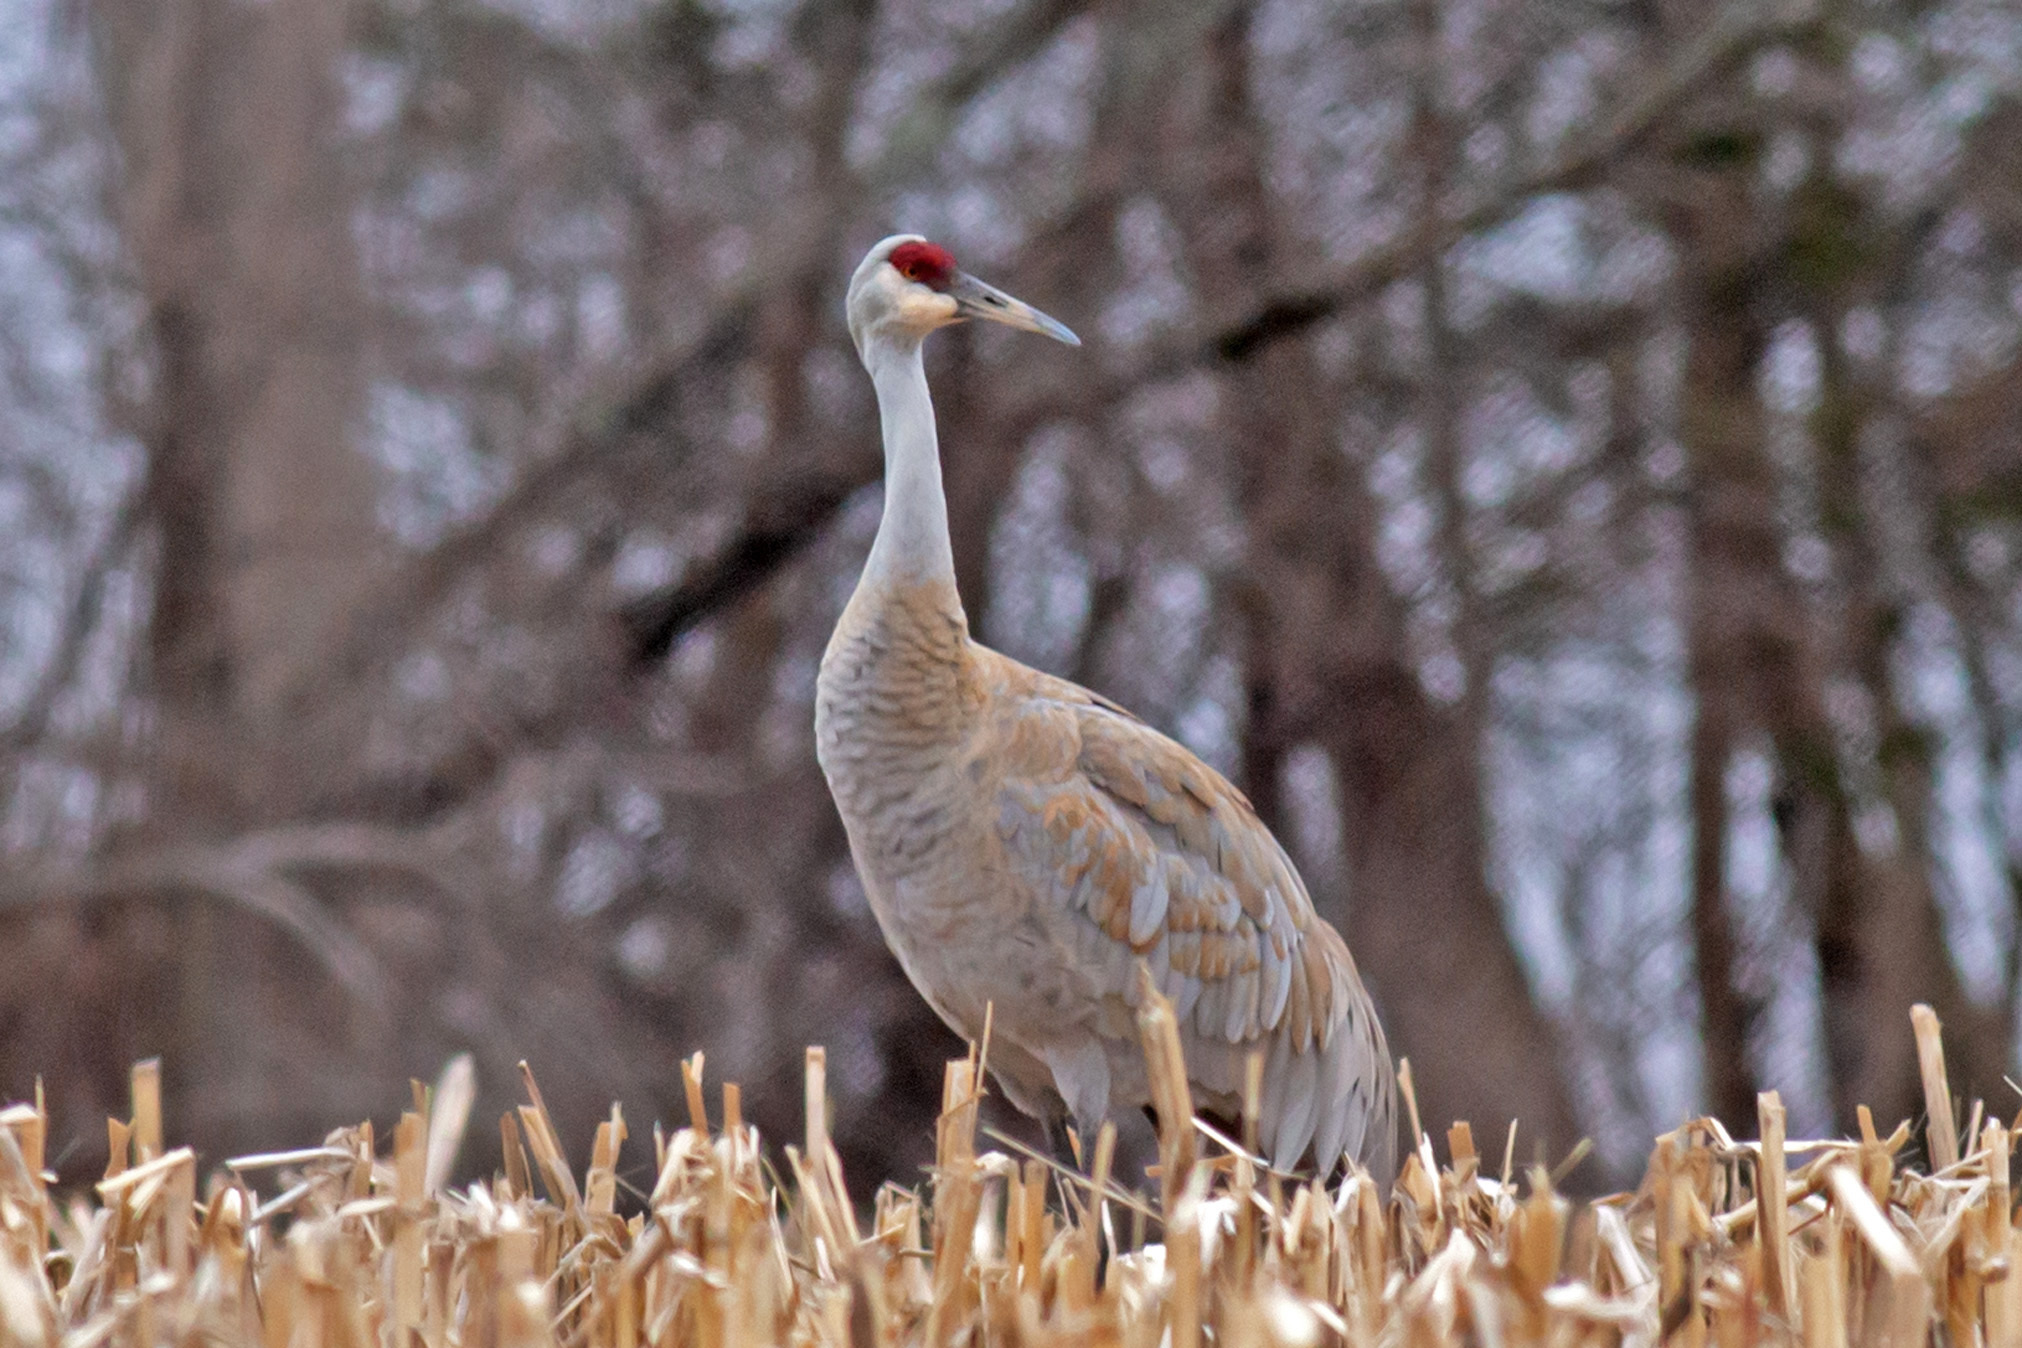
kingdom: Animalia
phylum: Chordata
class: Aves
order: Gruiformes
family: Gruidae
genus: Grus
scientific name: Grus canadensis
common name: Sandhill crane
